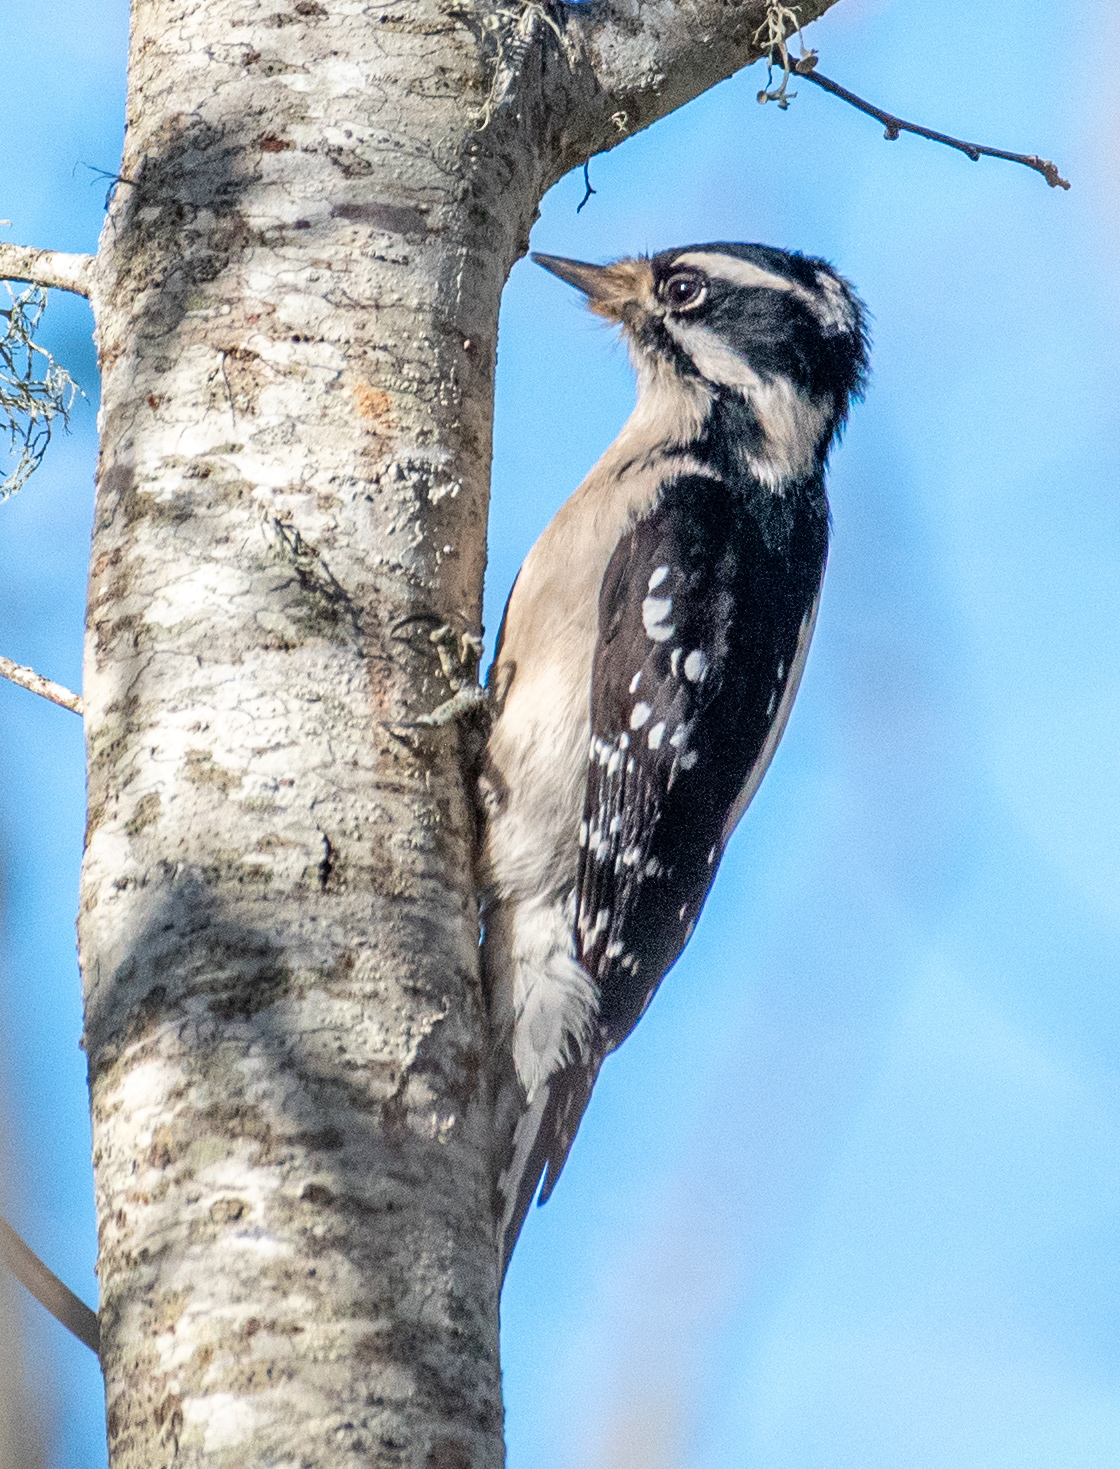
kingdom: Animalia
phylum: Chordata
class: Aves
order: Piciformes
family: Picidae
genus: Dryobates
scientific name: Dryobates pubescens
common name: Downy woodpecker
